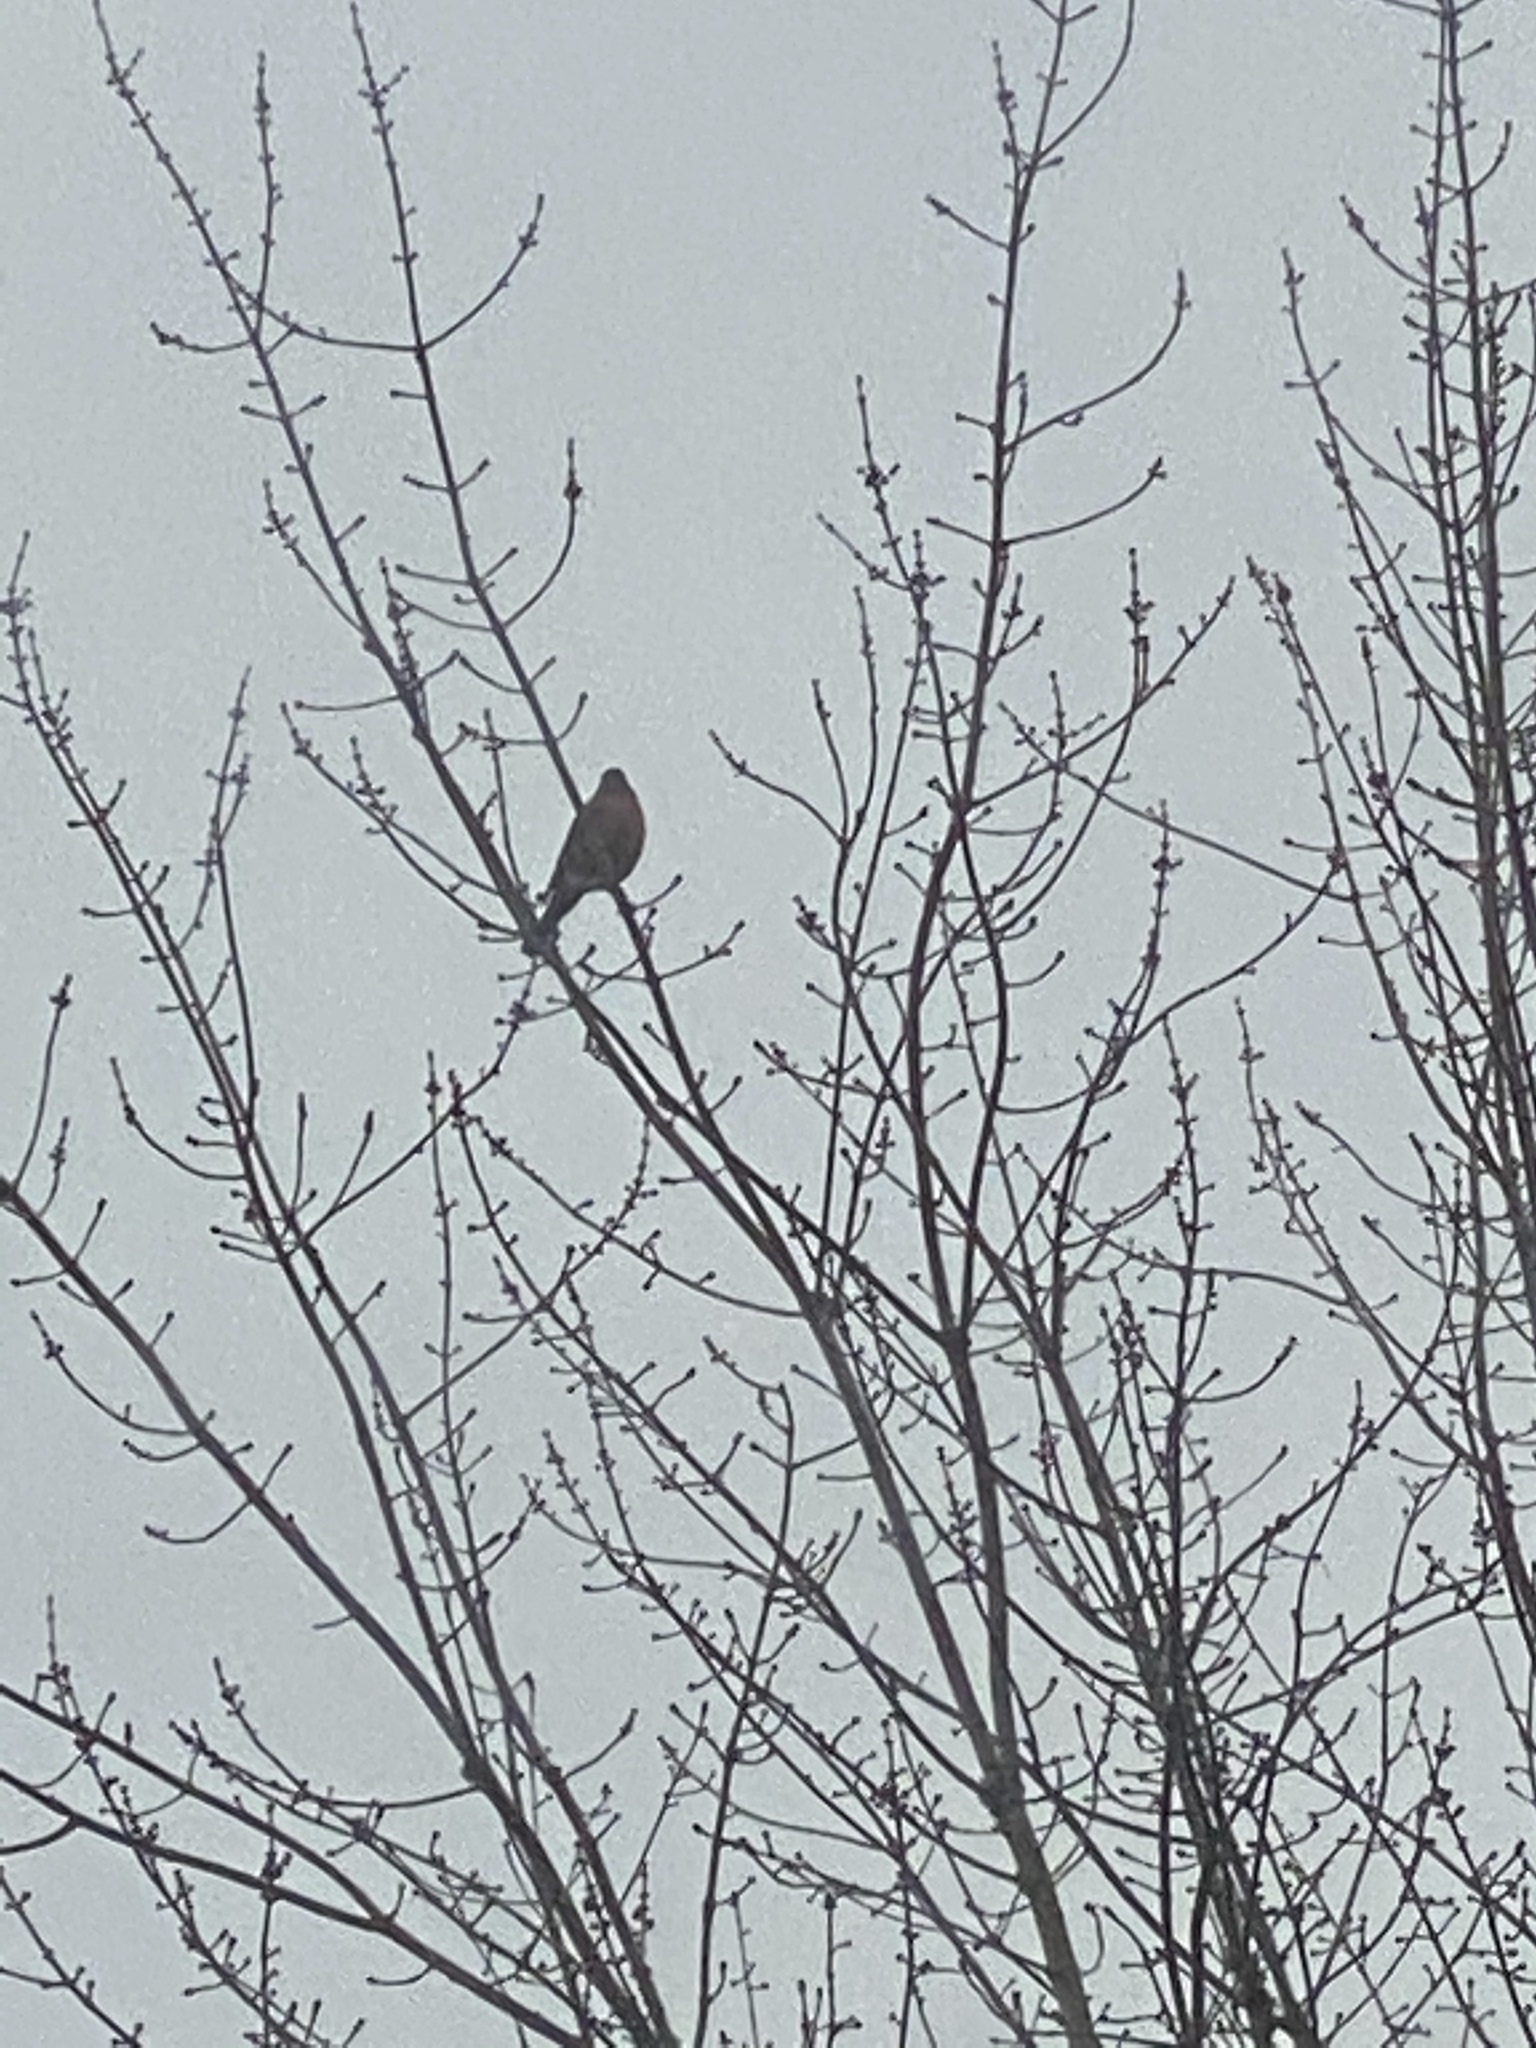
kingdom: Animalia
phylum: Chordata
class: Aves
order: Passeriformes
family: Turdidae
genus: Turdus
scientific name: Turdus migratorius
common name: American robin
